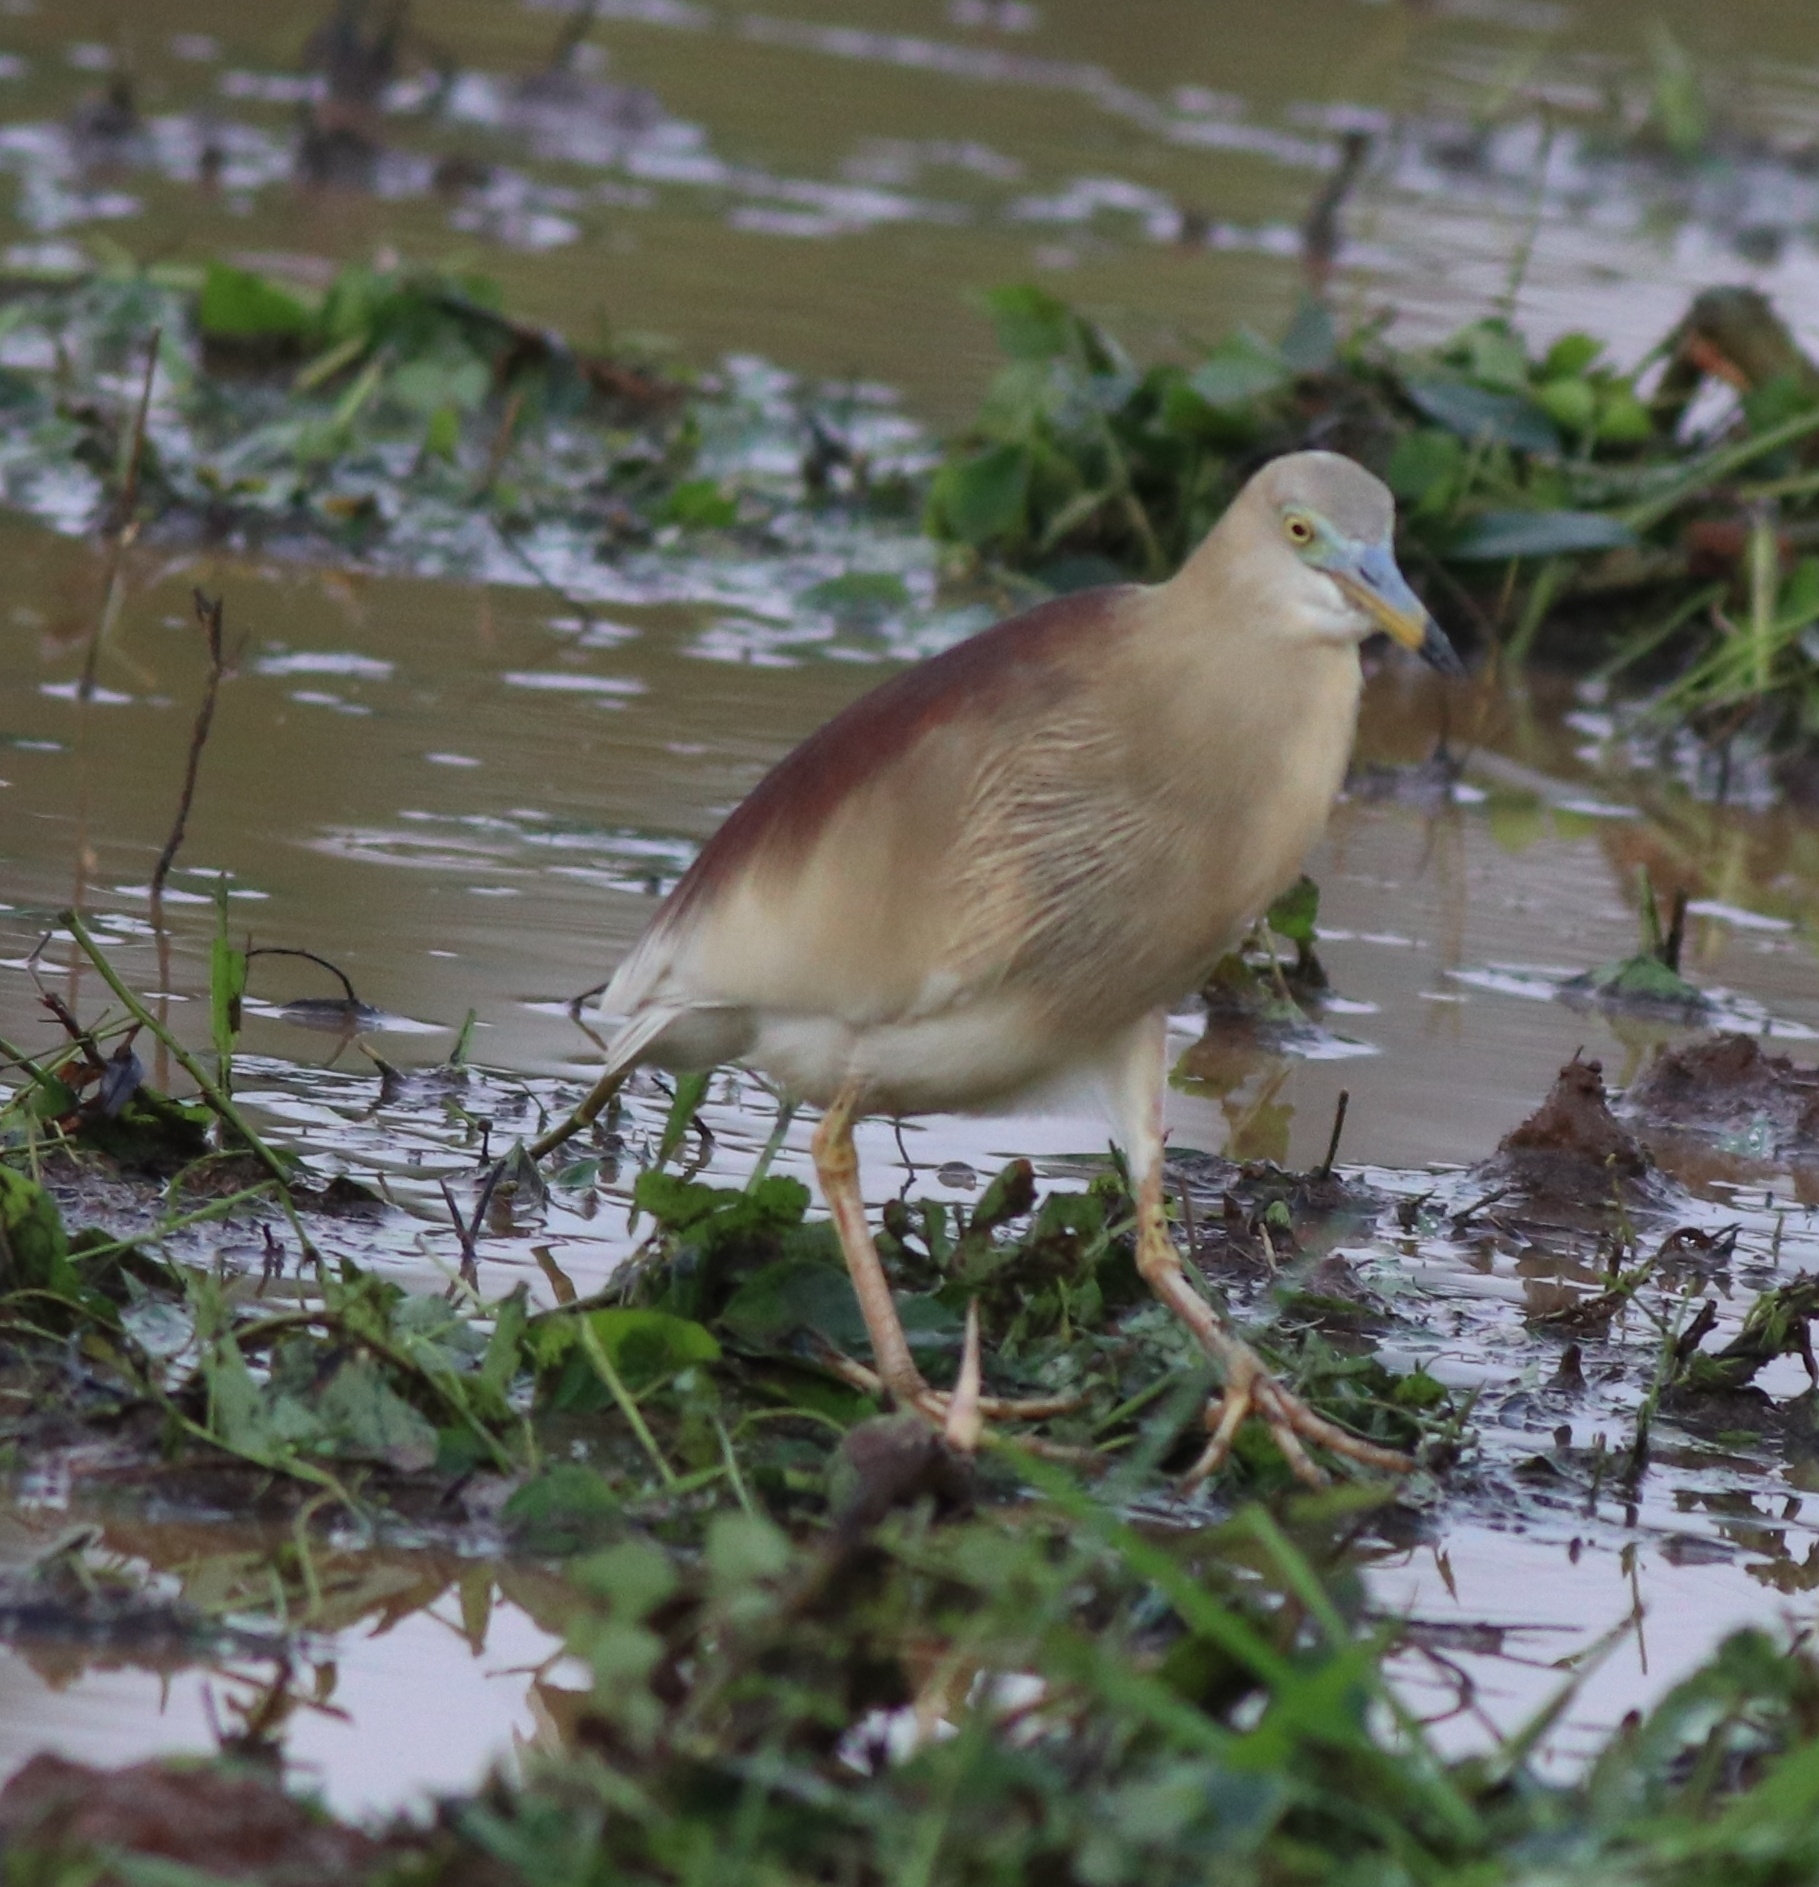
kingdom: Animalia
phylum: Chordata
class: Aves
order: Pelecaniformes
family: Ardeidae
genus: Ardeola
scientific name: Ardeola grayii
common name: Indian pond heron
